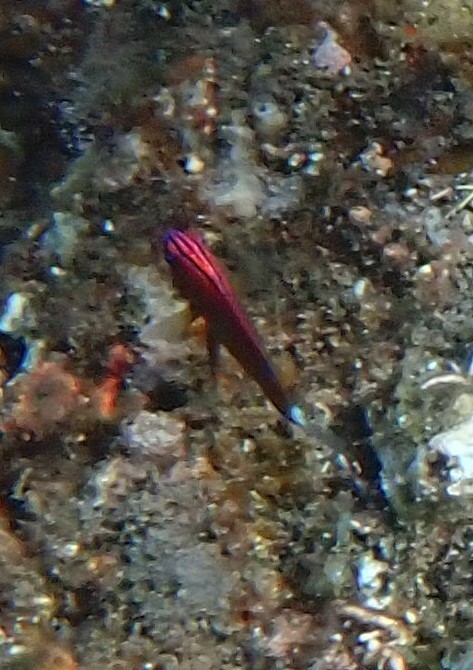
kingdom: Animalia
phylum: Chordata
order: Perciformes
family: Pomacentridae
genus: Pomacentrus
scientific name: Pomacentrus bankanensis
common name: Speckled damsel
